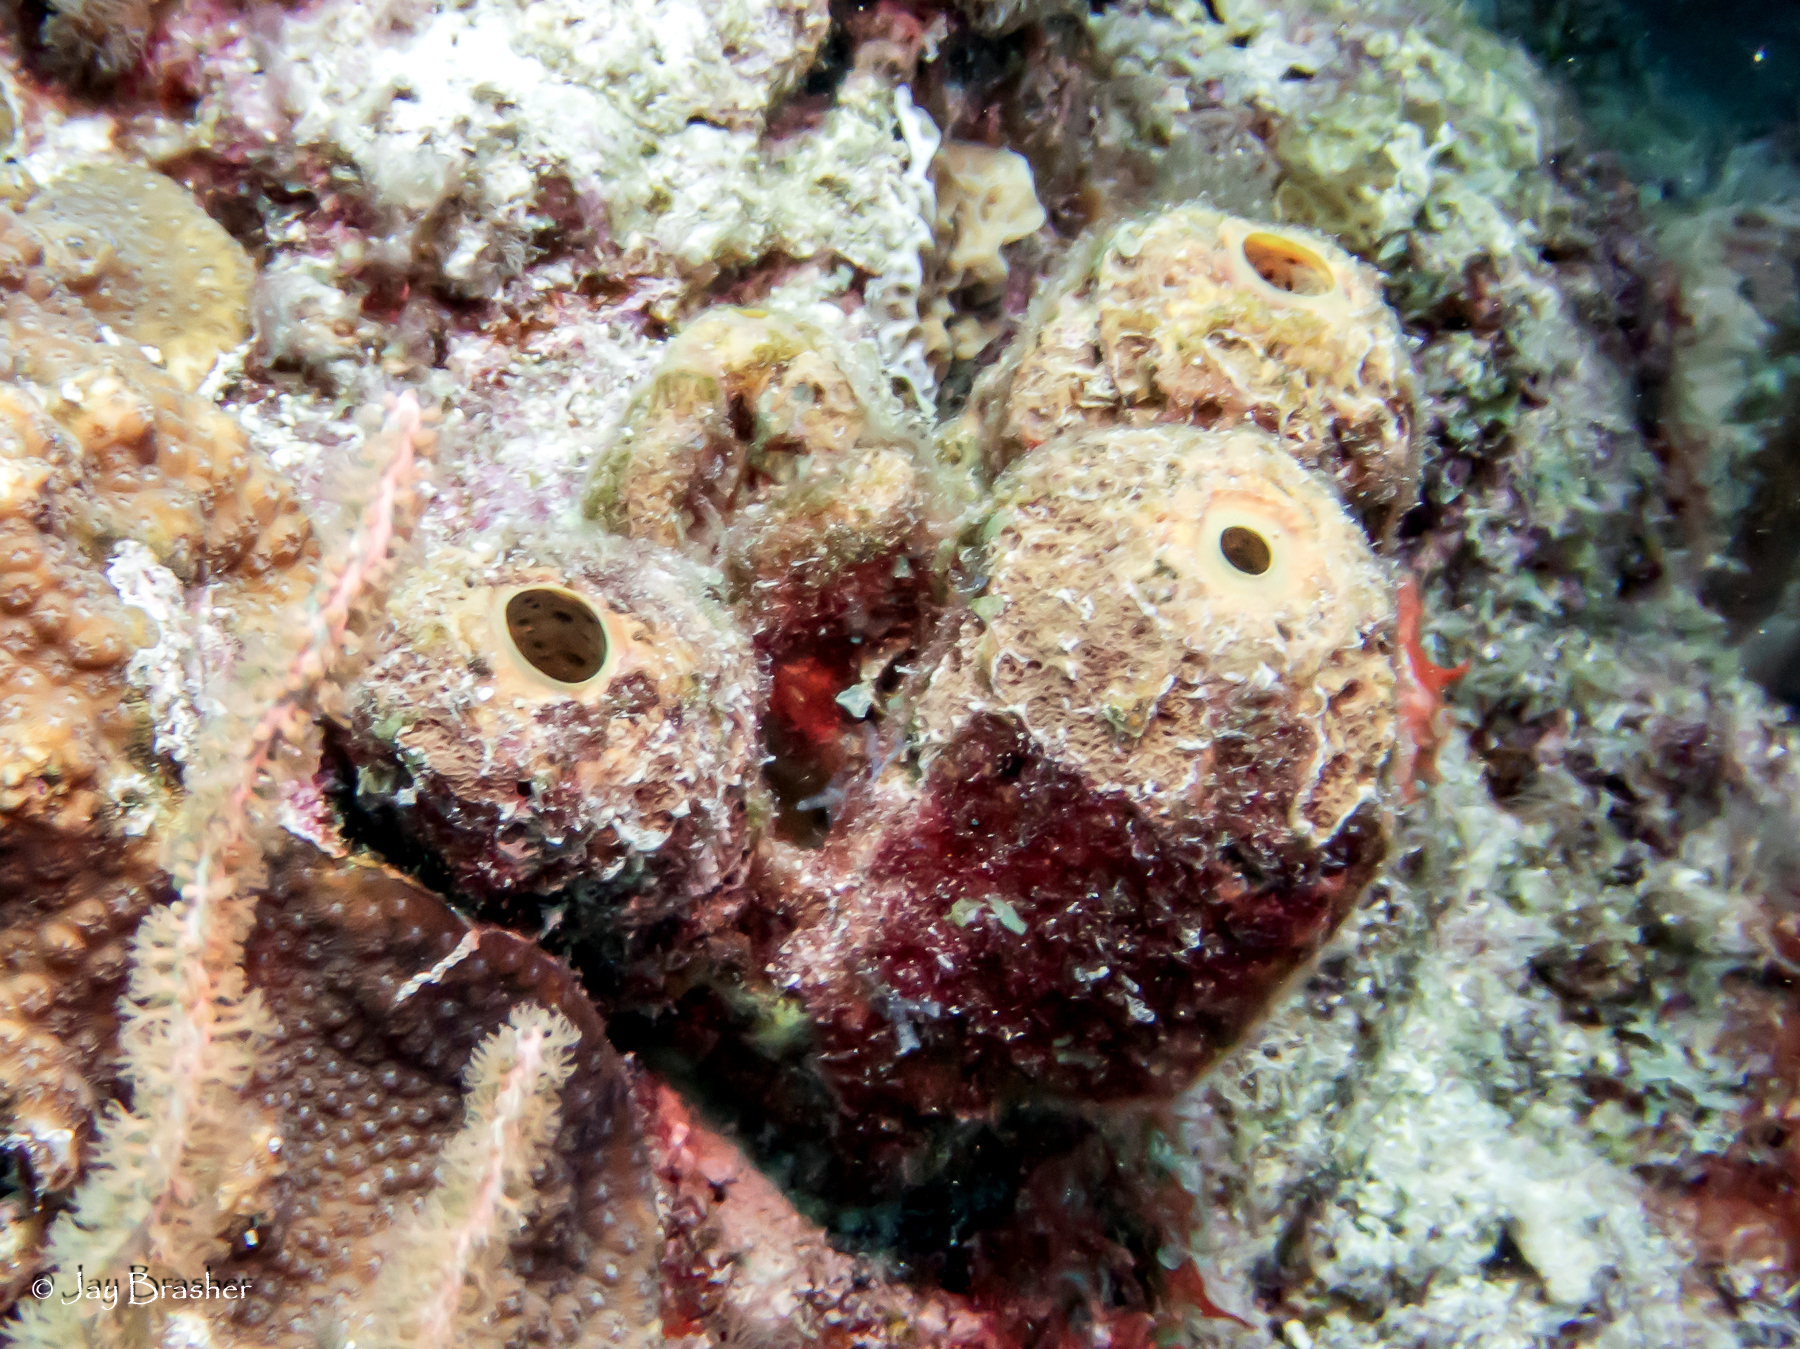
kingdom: Animalia
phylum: Porifera
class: Demospongiae
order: Verongiida
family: Aplysinidae
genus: Aplysina
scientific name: Aplysina archeri
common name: Stove-pipe sponge
